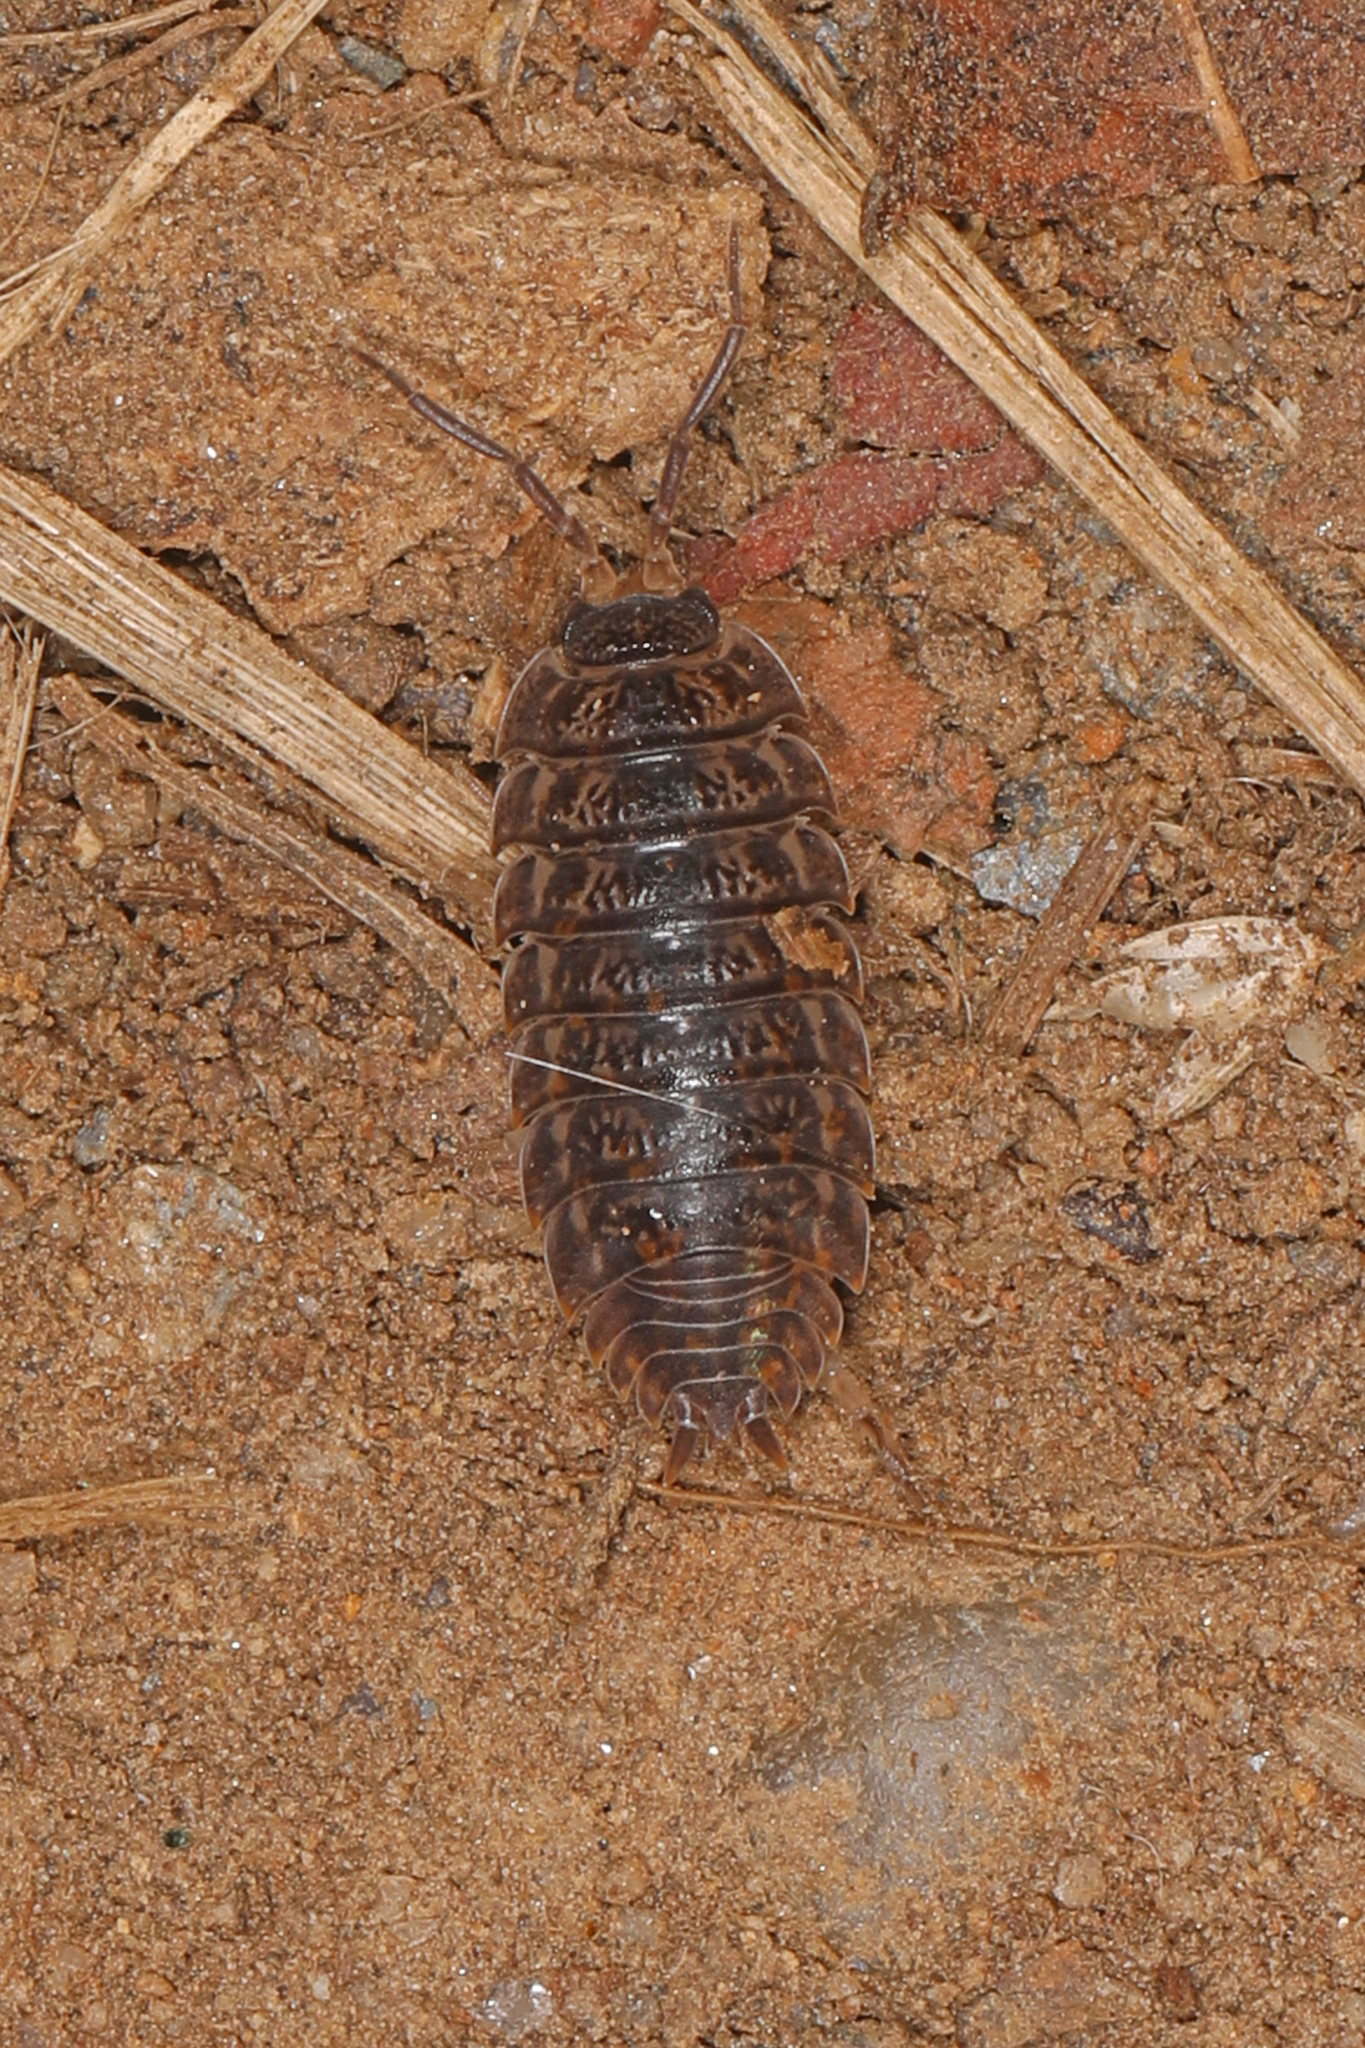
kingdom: Animalia
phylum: Arthropoda
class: Malacostraca
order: Isopoda
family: Trachelipodidae
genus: Trachelipus
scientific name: Trachelipus rathkii
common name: Isopod
